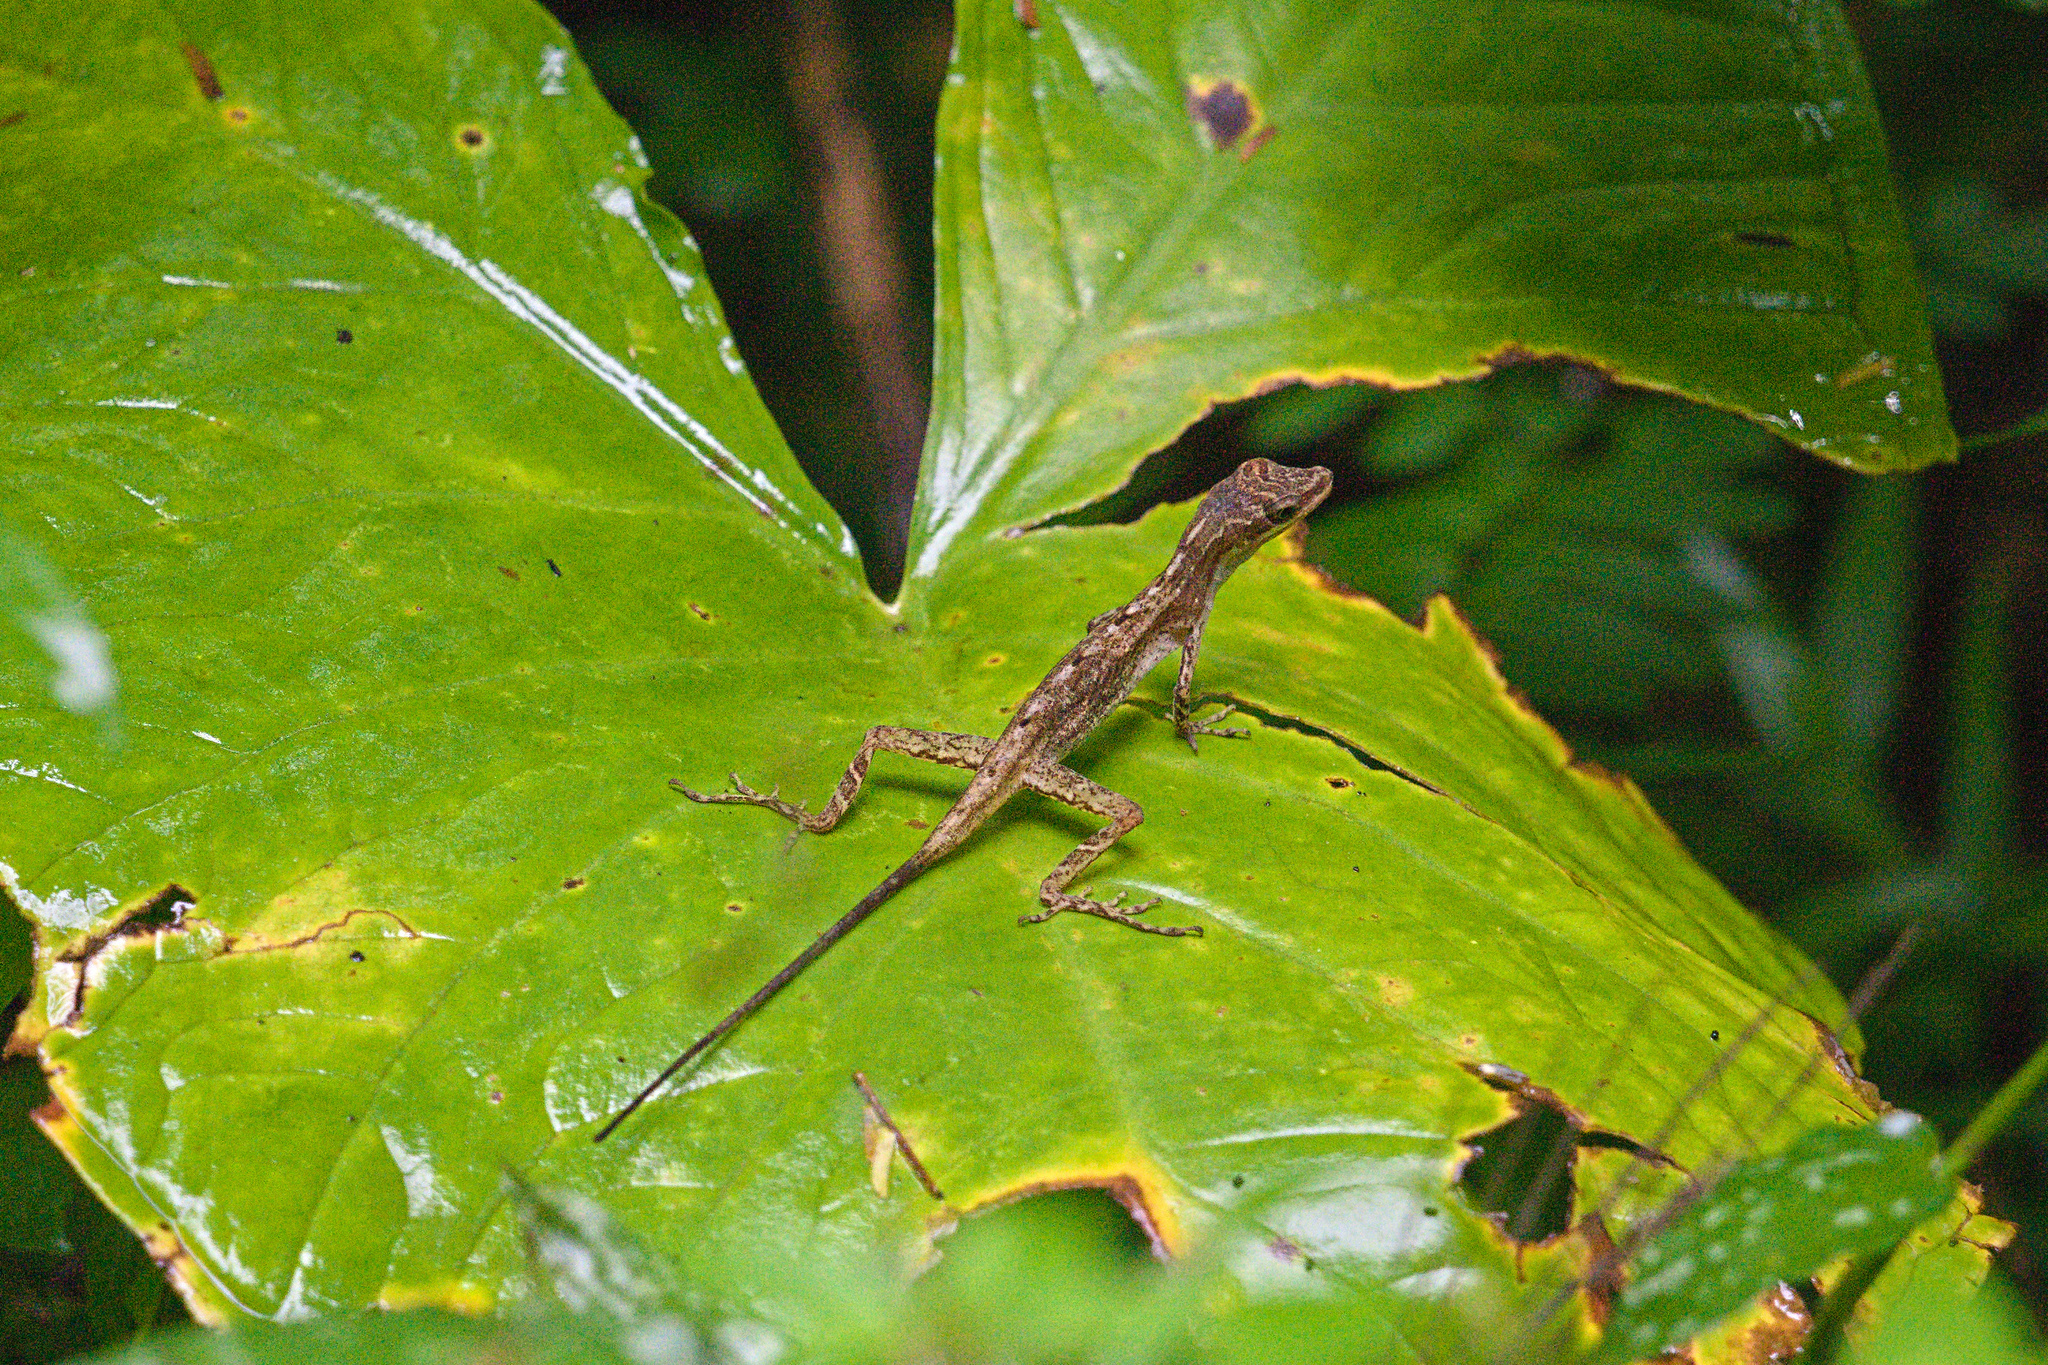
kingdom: Animalia
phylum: Chordata
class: Squamata
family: Dactyloidae
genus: Anolis
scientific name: Anolis limifrons
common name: Border anole
